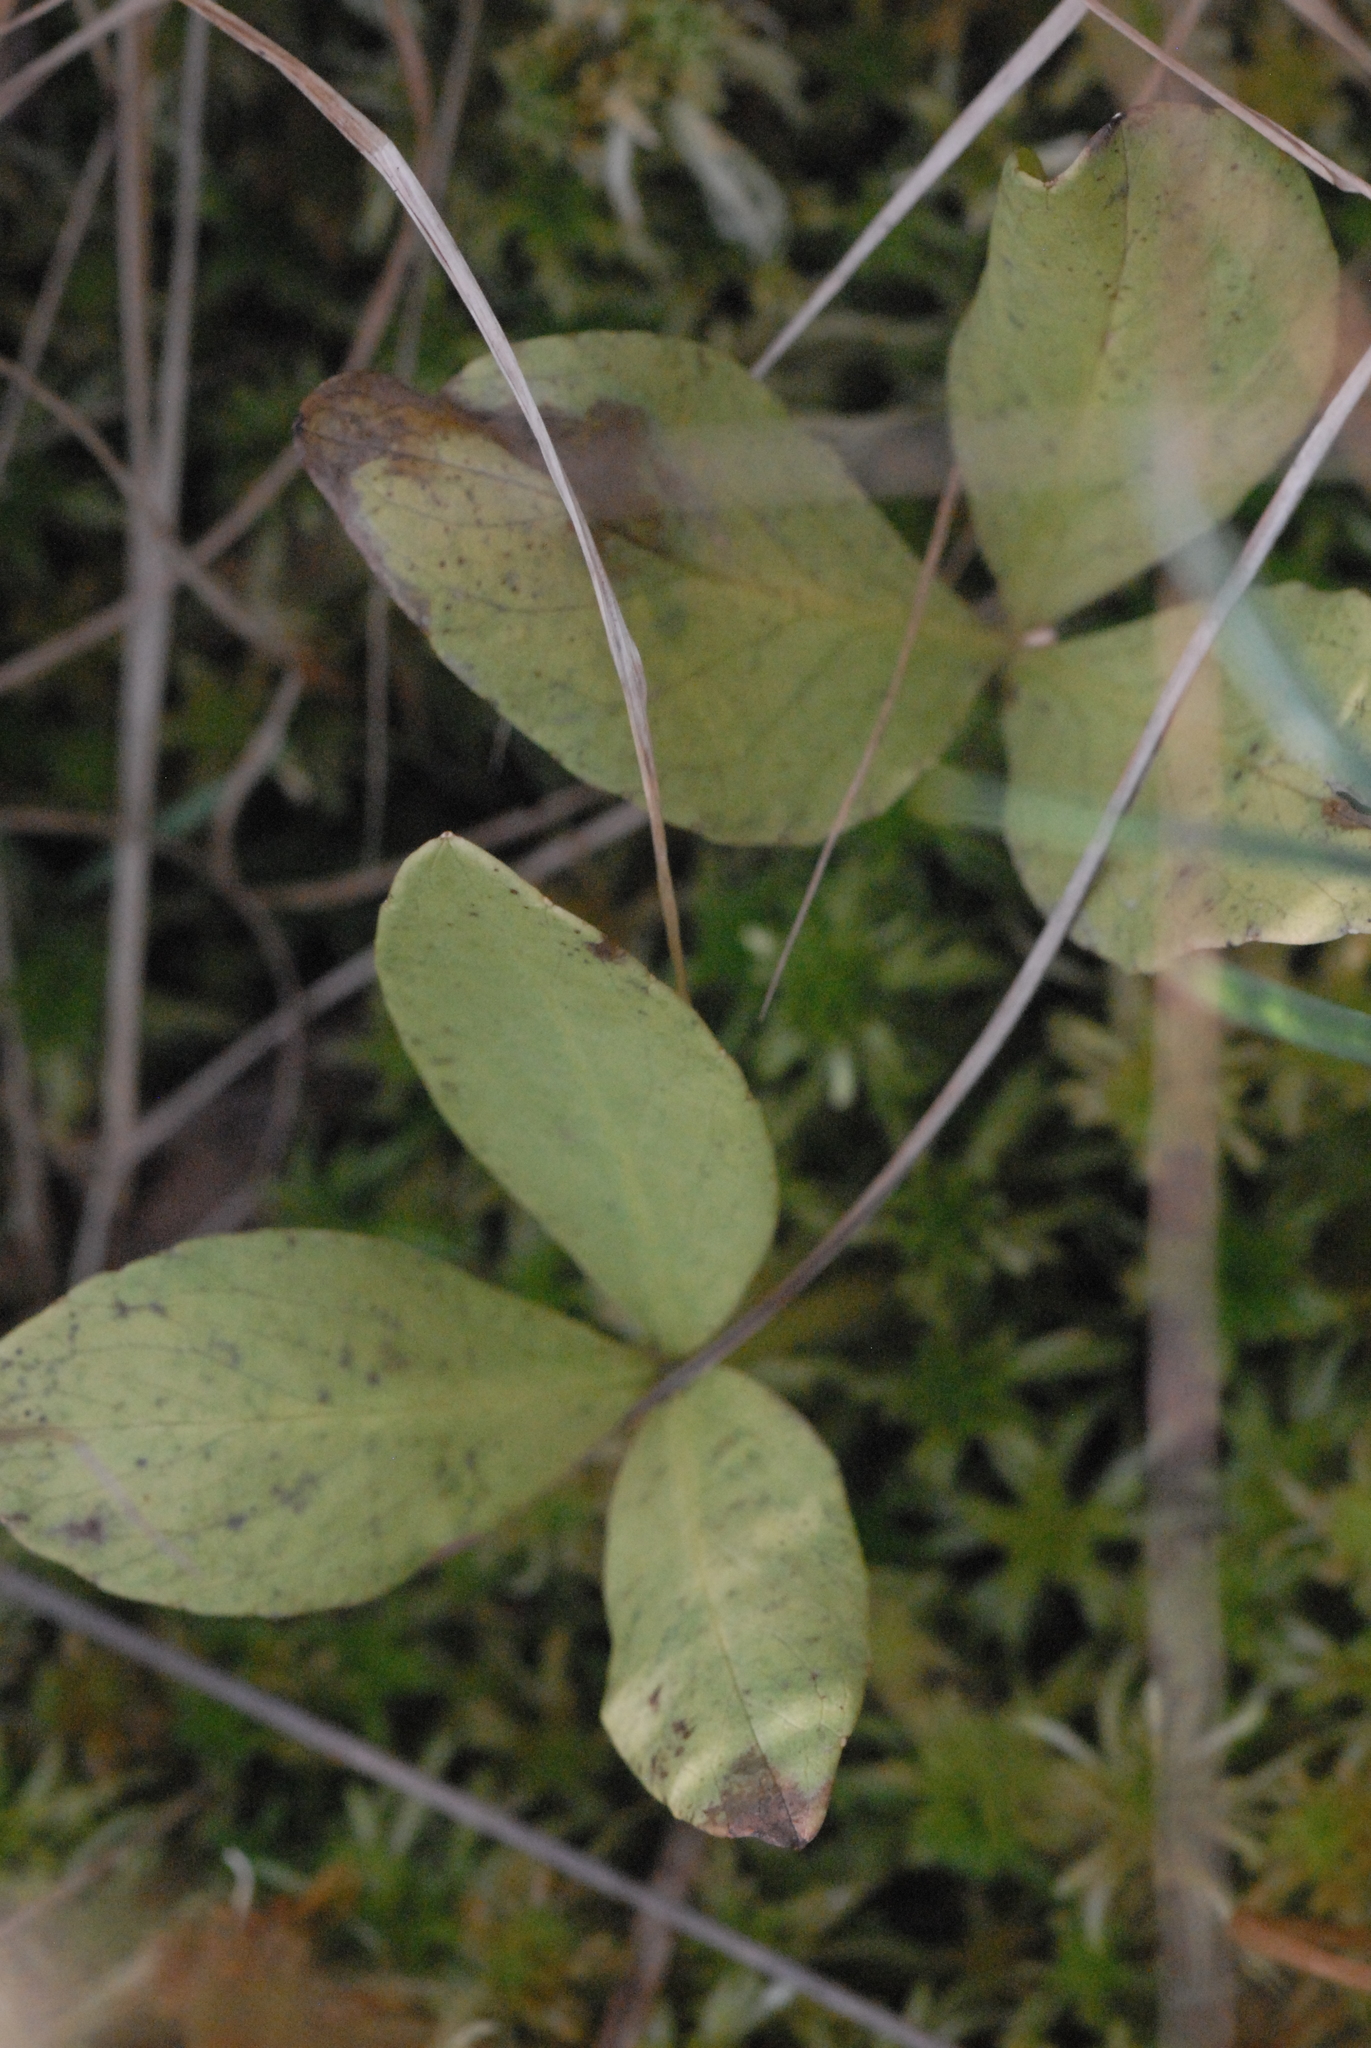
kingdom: Plantae
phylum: Tracheophyta
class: Magnoliopsida
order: Asterales
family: Menyanthaceae
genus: Menyanthes
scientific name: Menyanthes trifoliata
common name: Bogbean
